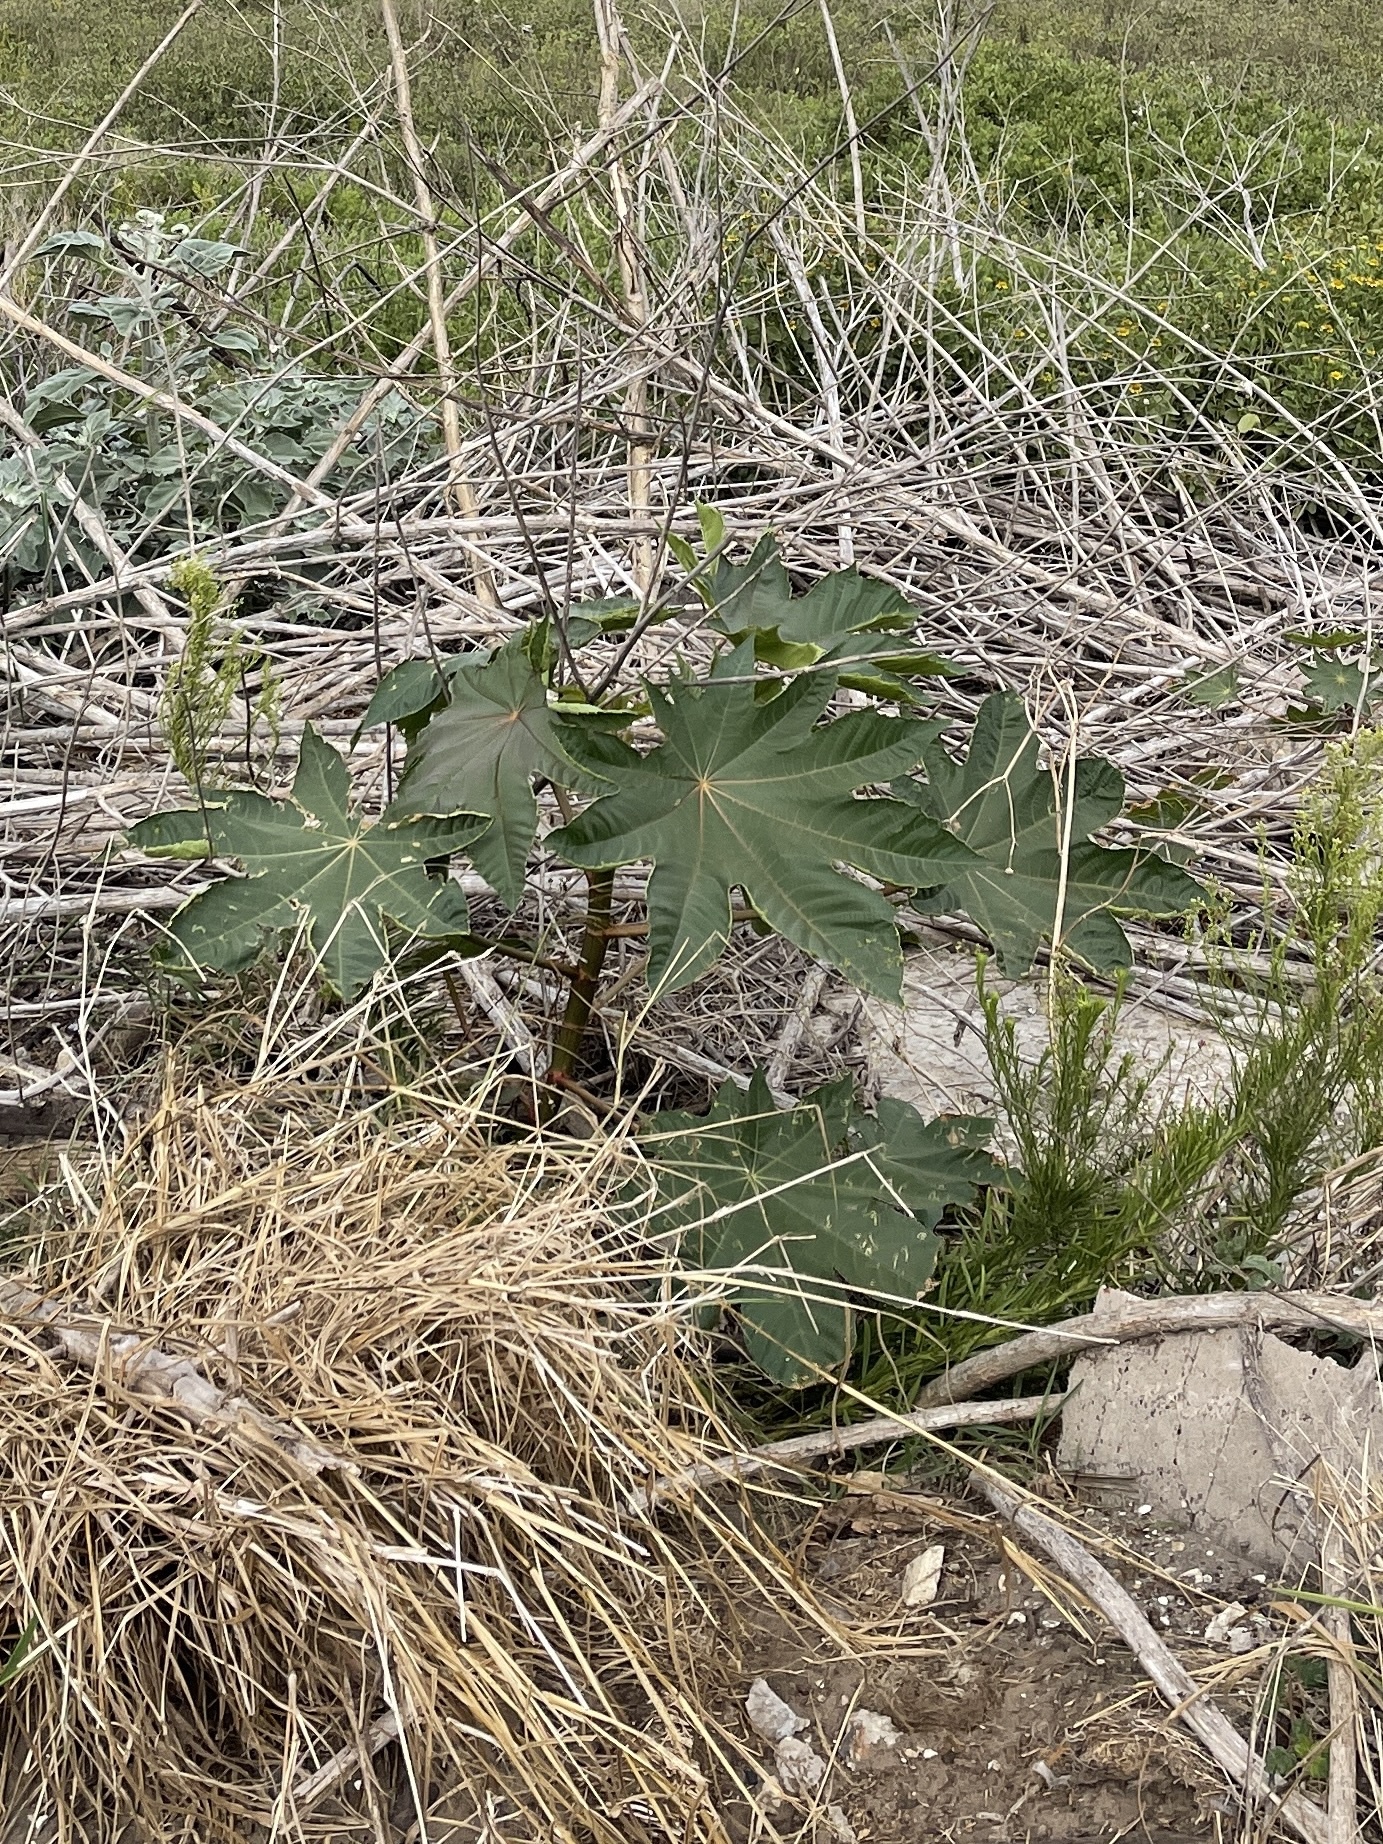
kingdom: Plantae
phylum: Tracheophyta
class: Magnoliopsida
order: Malpighiales
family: Euphorbiaceae
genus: Ricinus
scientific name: Ricinus communis
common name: Castor-oil-plant
